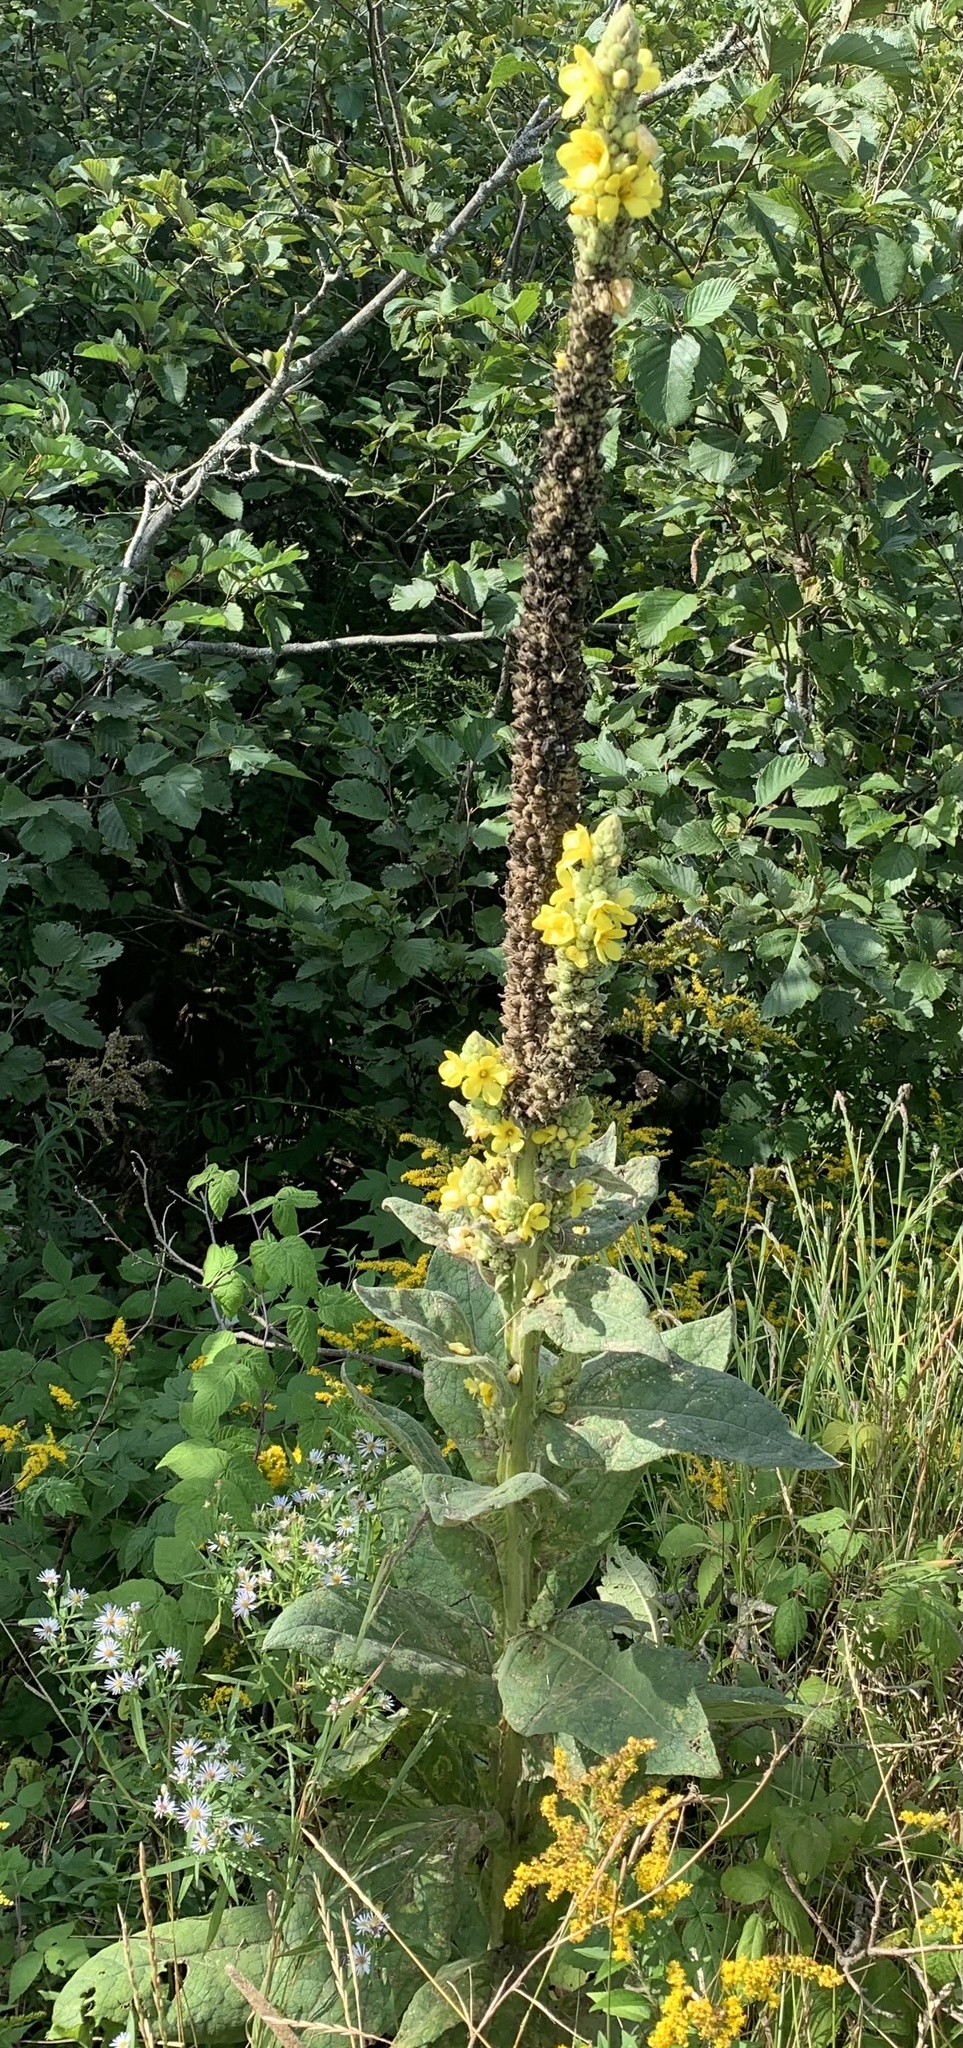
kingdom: Plantae
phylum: Tracheophyta
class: Magnoliopsida
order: Lamiales
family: Scrophulariaceae
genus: Verbascum
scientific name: Verbascum thapsus
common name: Common mullein
